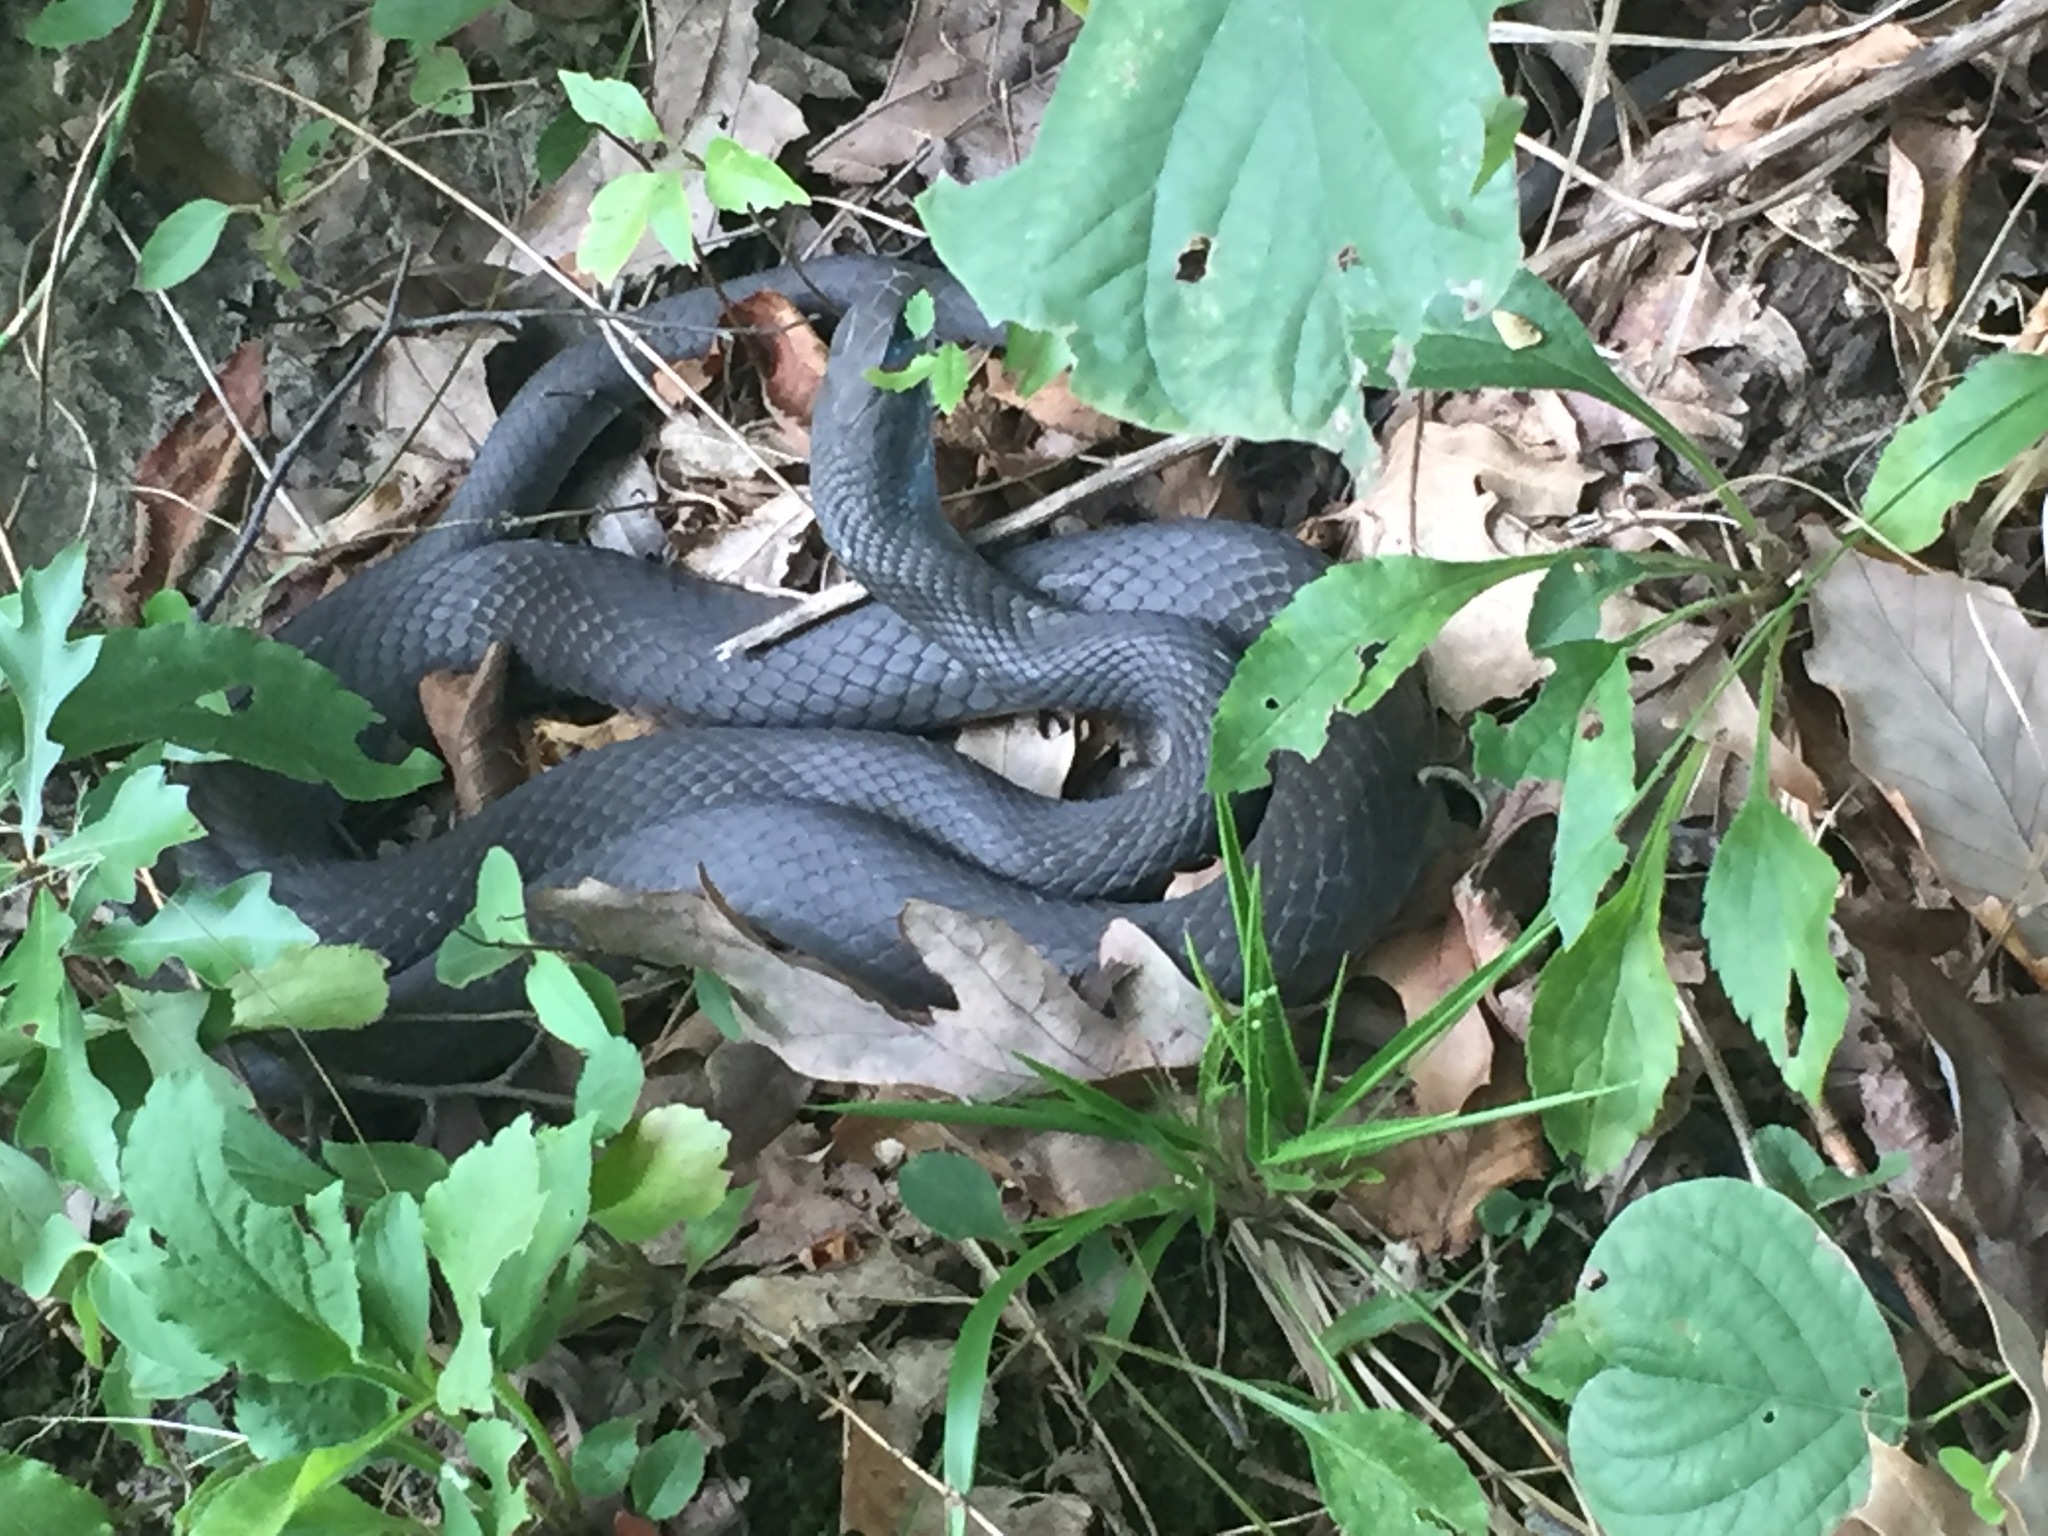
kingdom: Animalia
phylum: Chordata
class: Squamata
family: Colubridae
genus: Coluber
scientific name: Coluber constrictor
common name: Eastern racer
